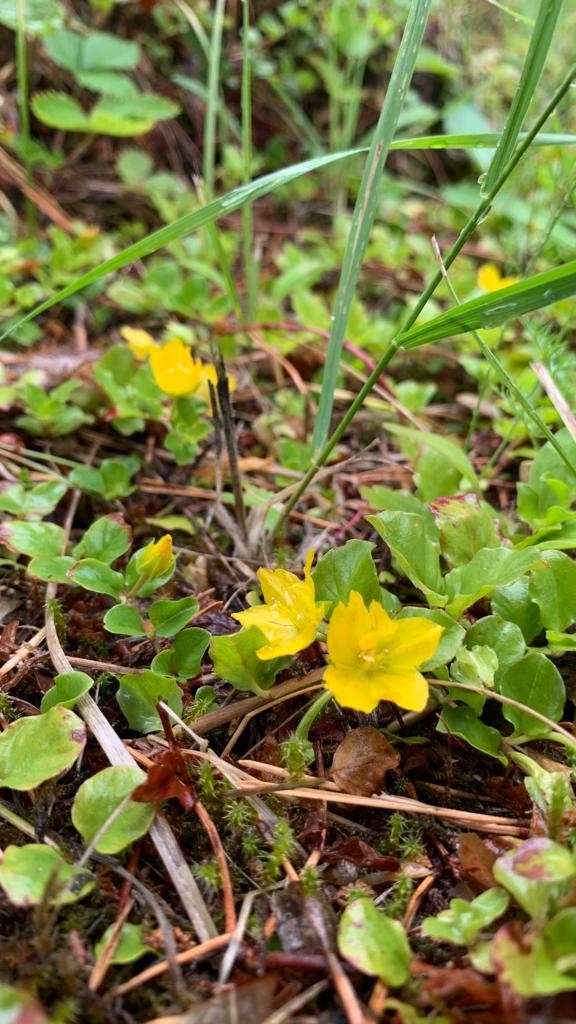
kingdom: Plantae
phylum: Tracheophyta
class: Magnoliopsida
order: Ericales
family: Primulaceae
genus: Lysimachia
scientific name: Lysimachia nummularia
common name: Moneywort
